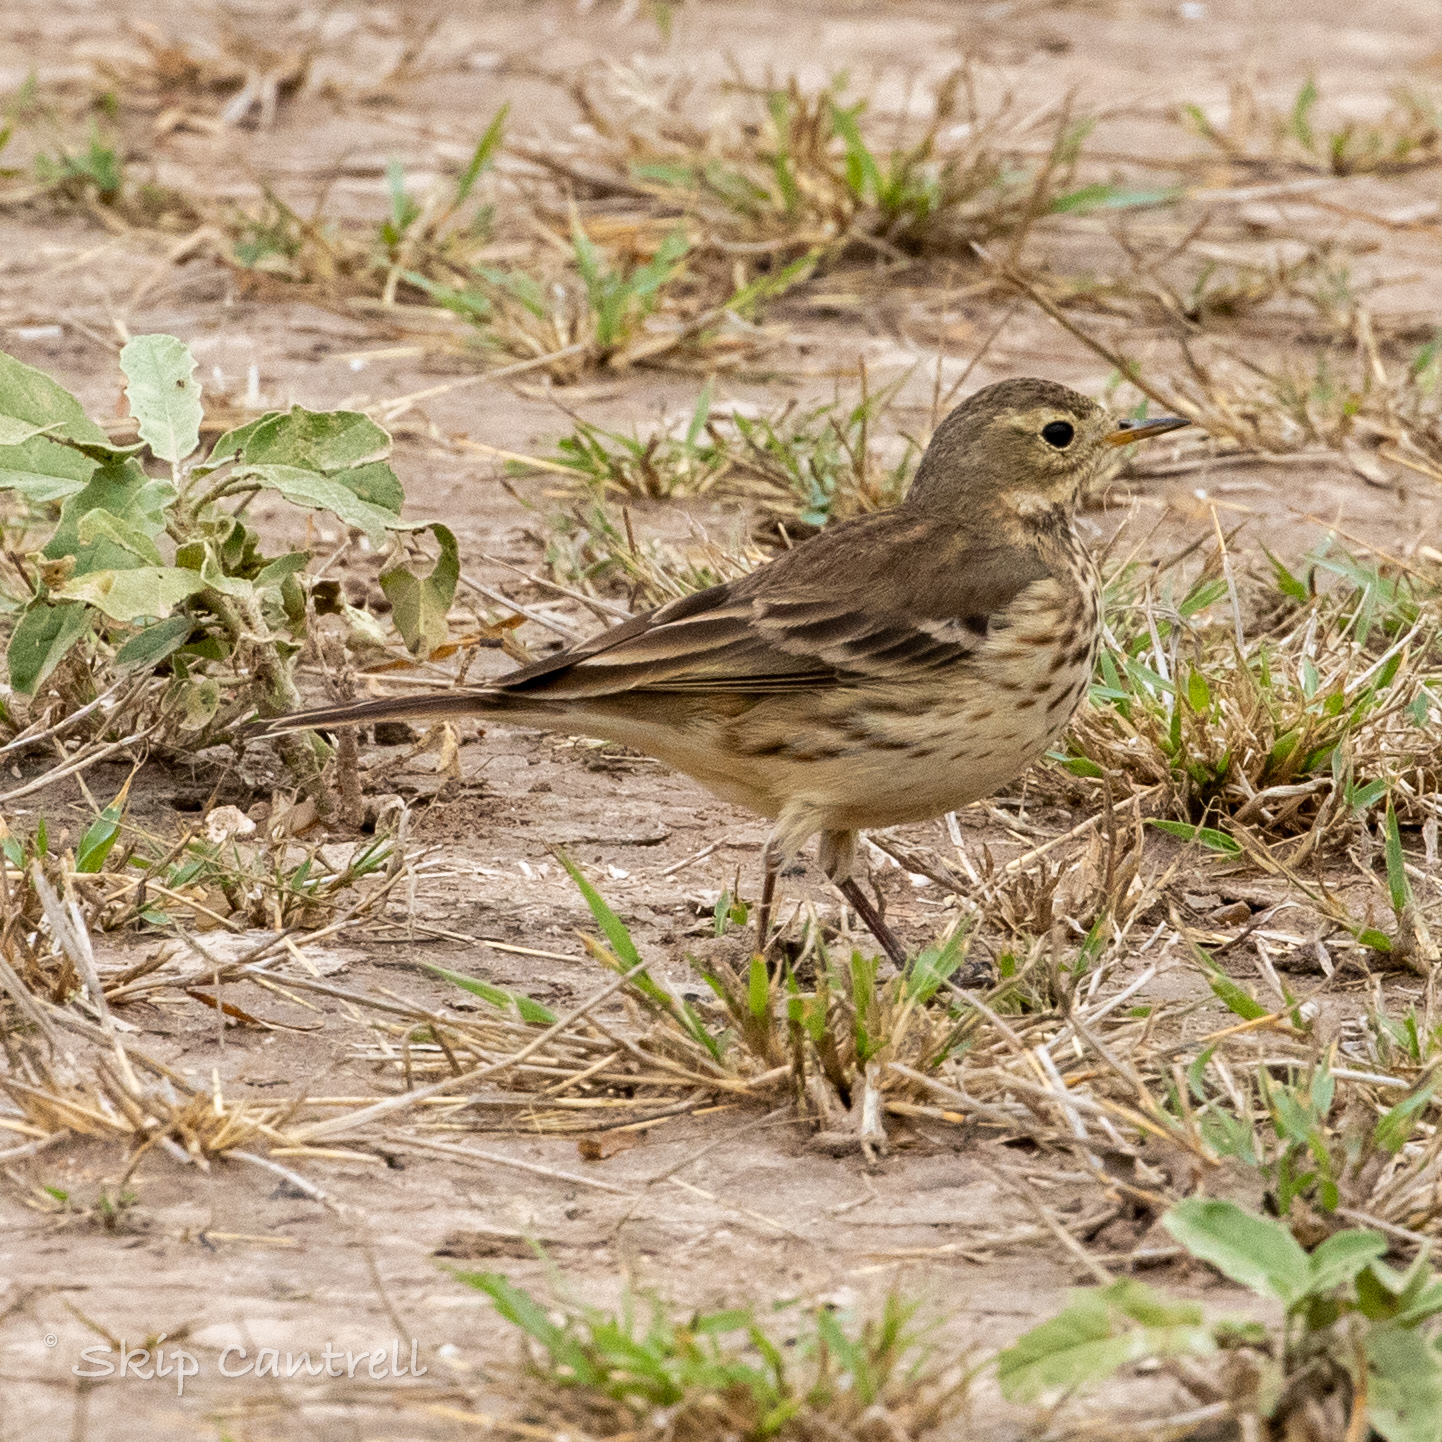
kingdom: Animalia
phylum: Chordata
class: Aves
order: Passeriformes
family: Motacillidae
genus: Anthus
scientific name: Anthus rubescens
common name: Buff-bellied pipit
